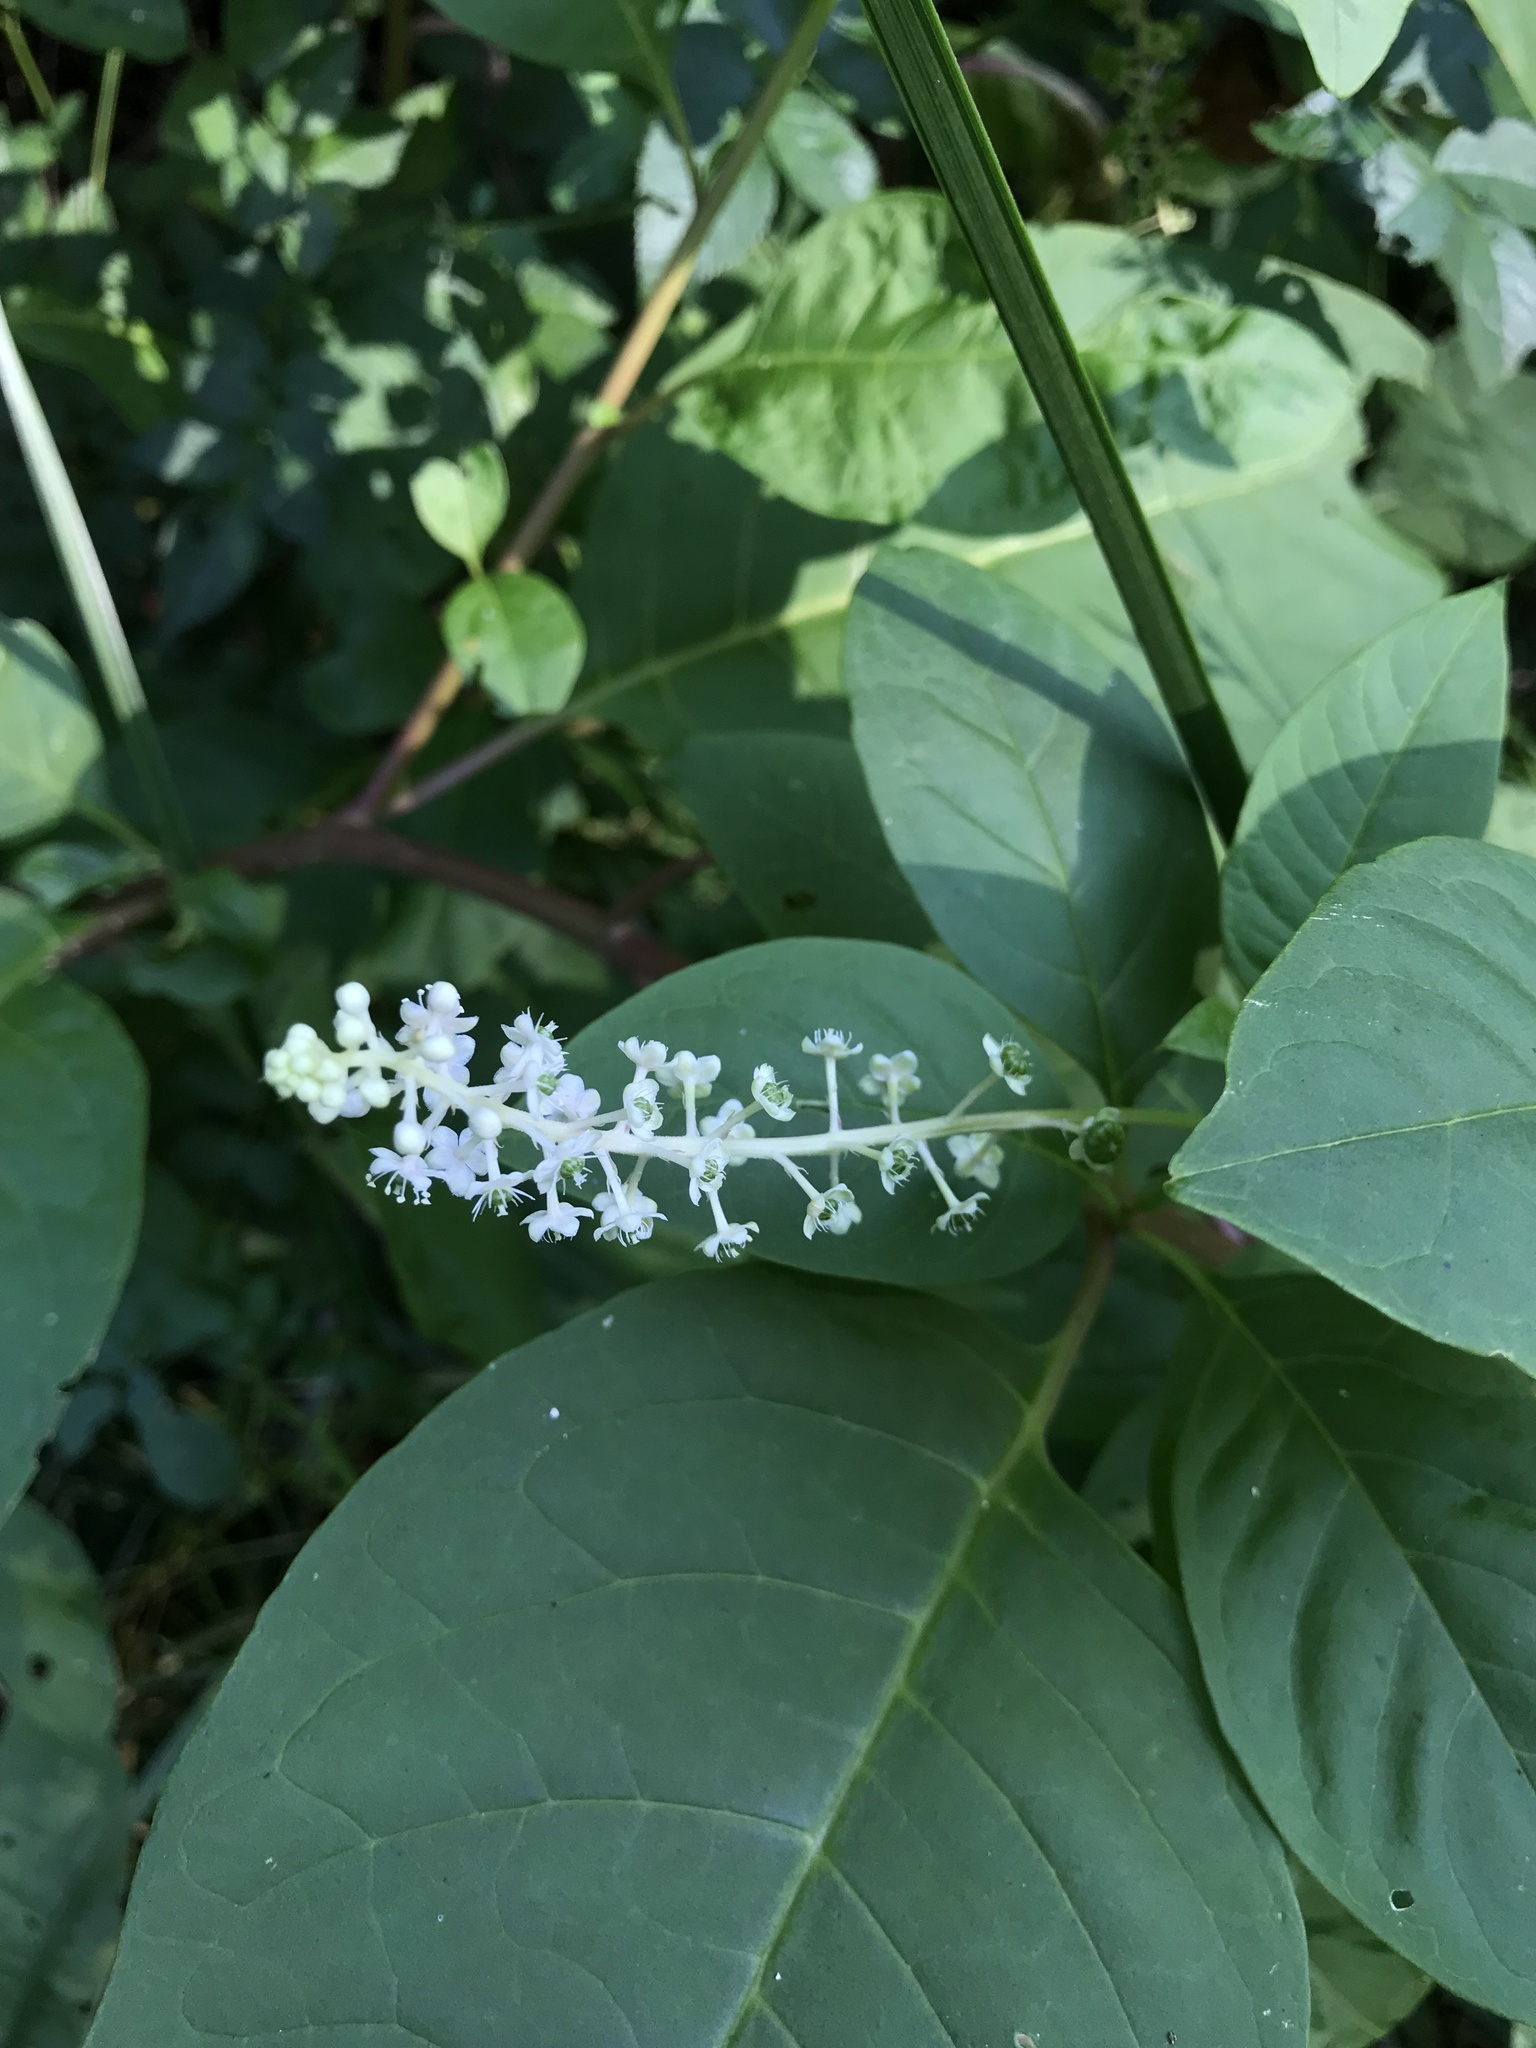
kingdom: Plantae
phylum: Tracheophyta
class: Magnoliopsida
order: Caryophyllales
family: Phytolaccaceae
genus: Phytolacca
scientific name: Phytolacca americana
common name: American pokeweed
